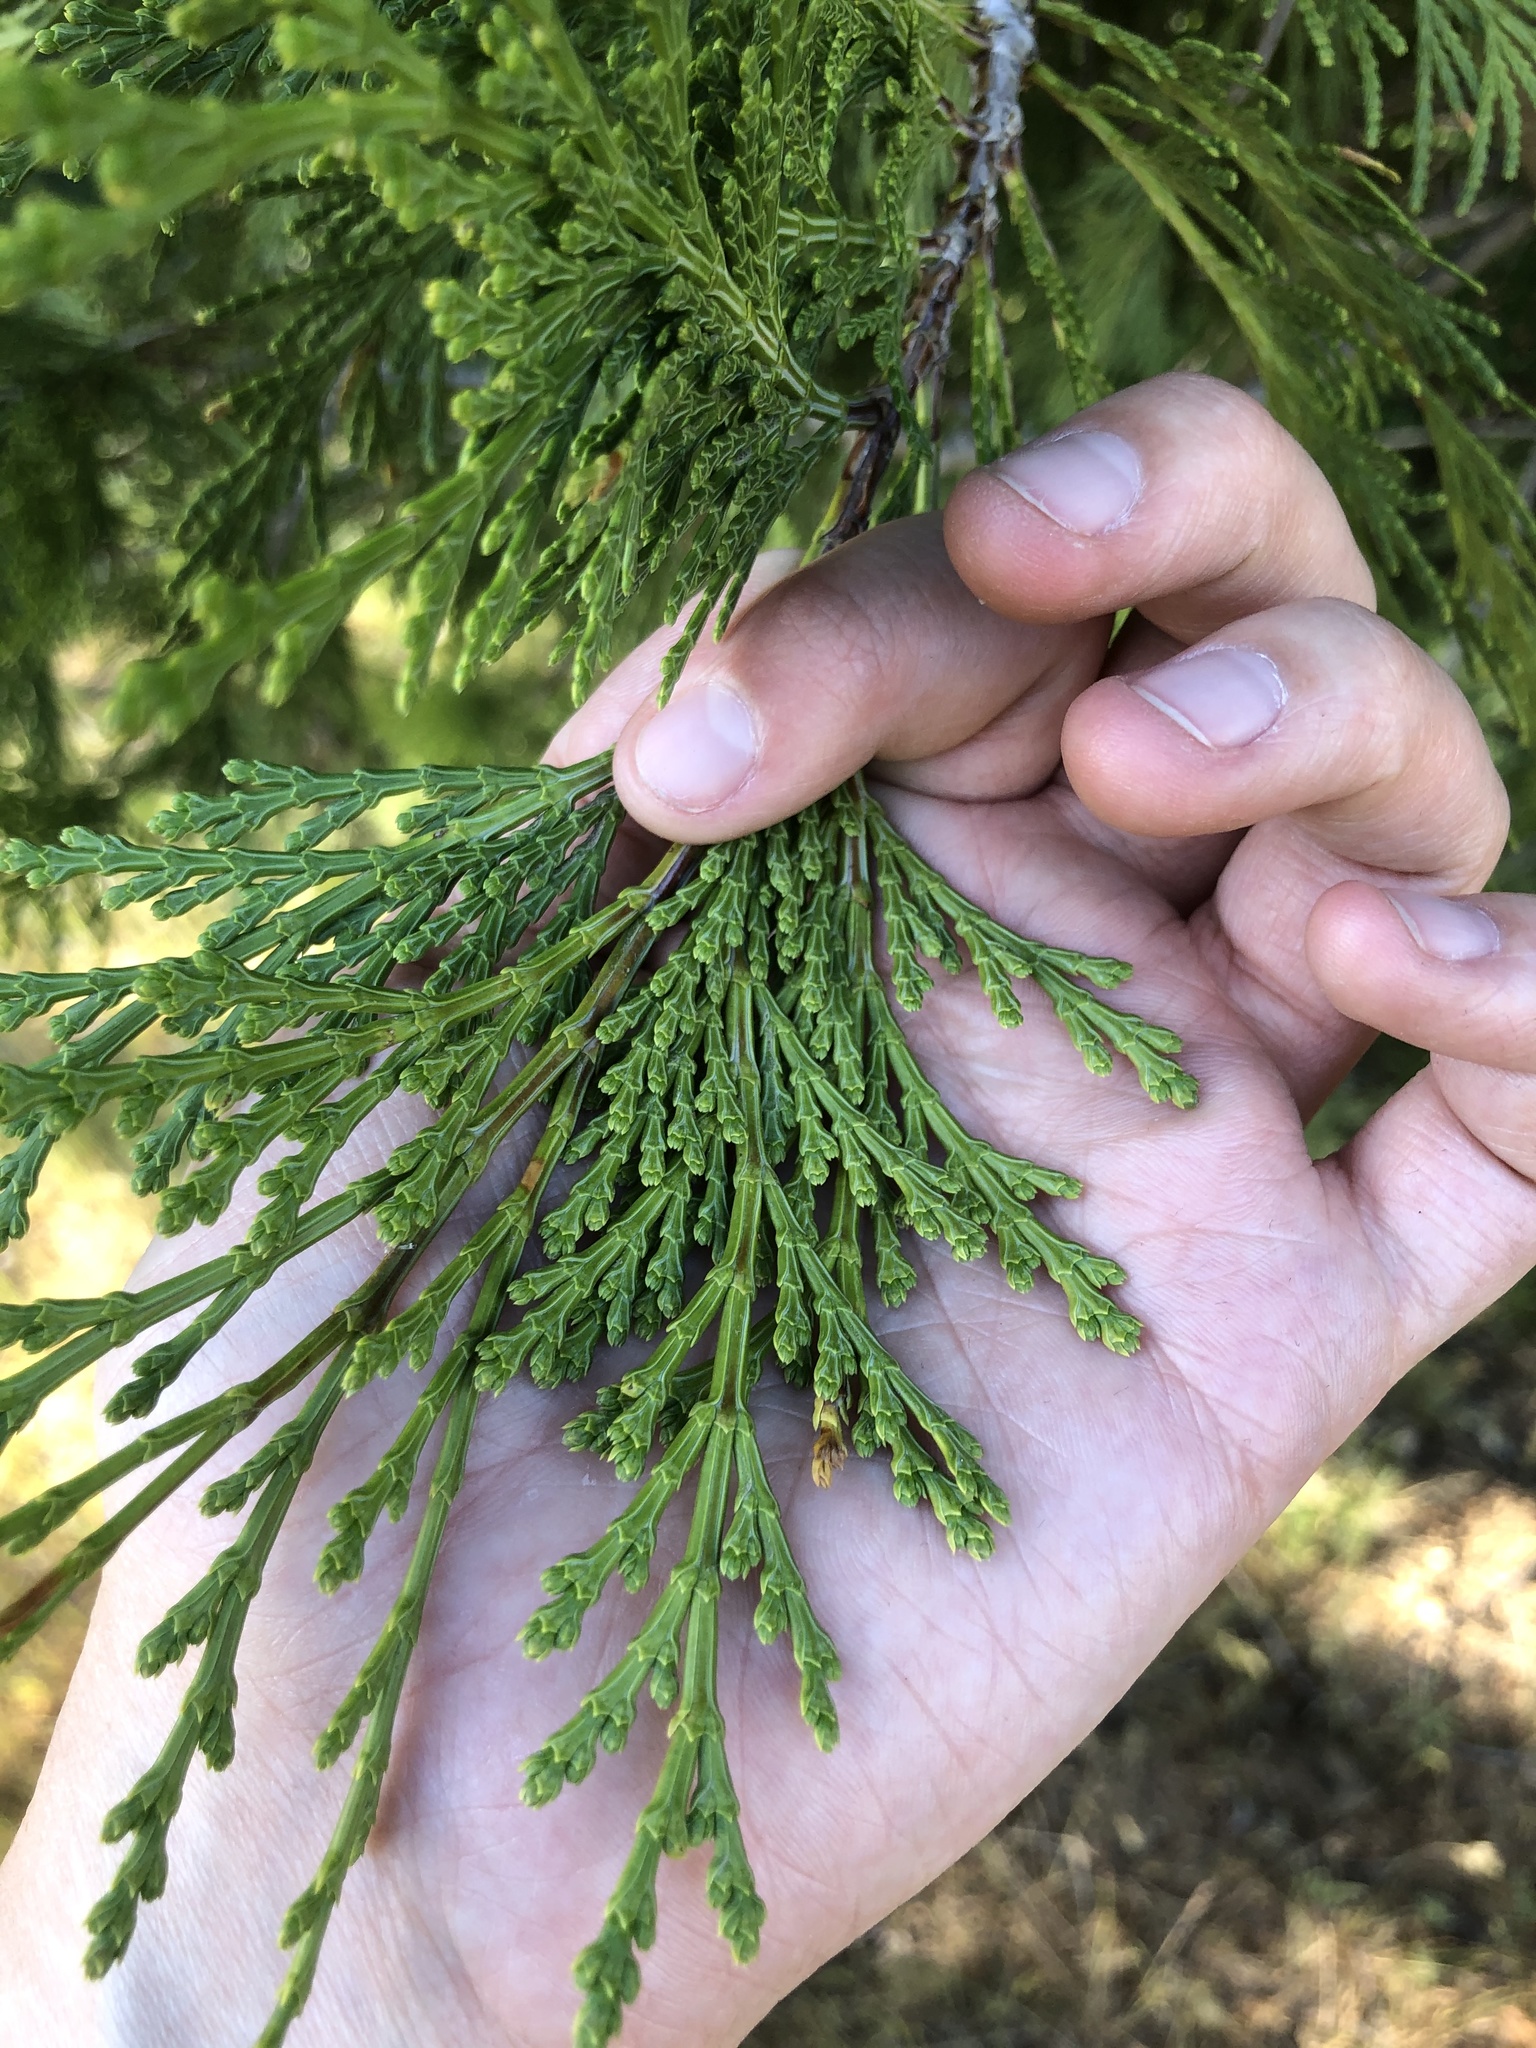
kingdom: Plantae
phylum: Tracheophyta
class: Pinopsida
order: Pinales
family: Cupressaceae
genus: Calocedrus
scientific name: Calocedrus decurrens
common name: Californian incense-cedar
